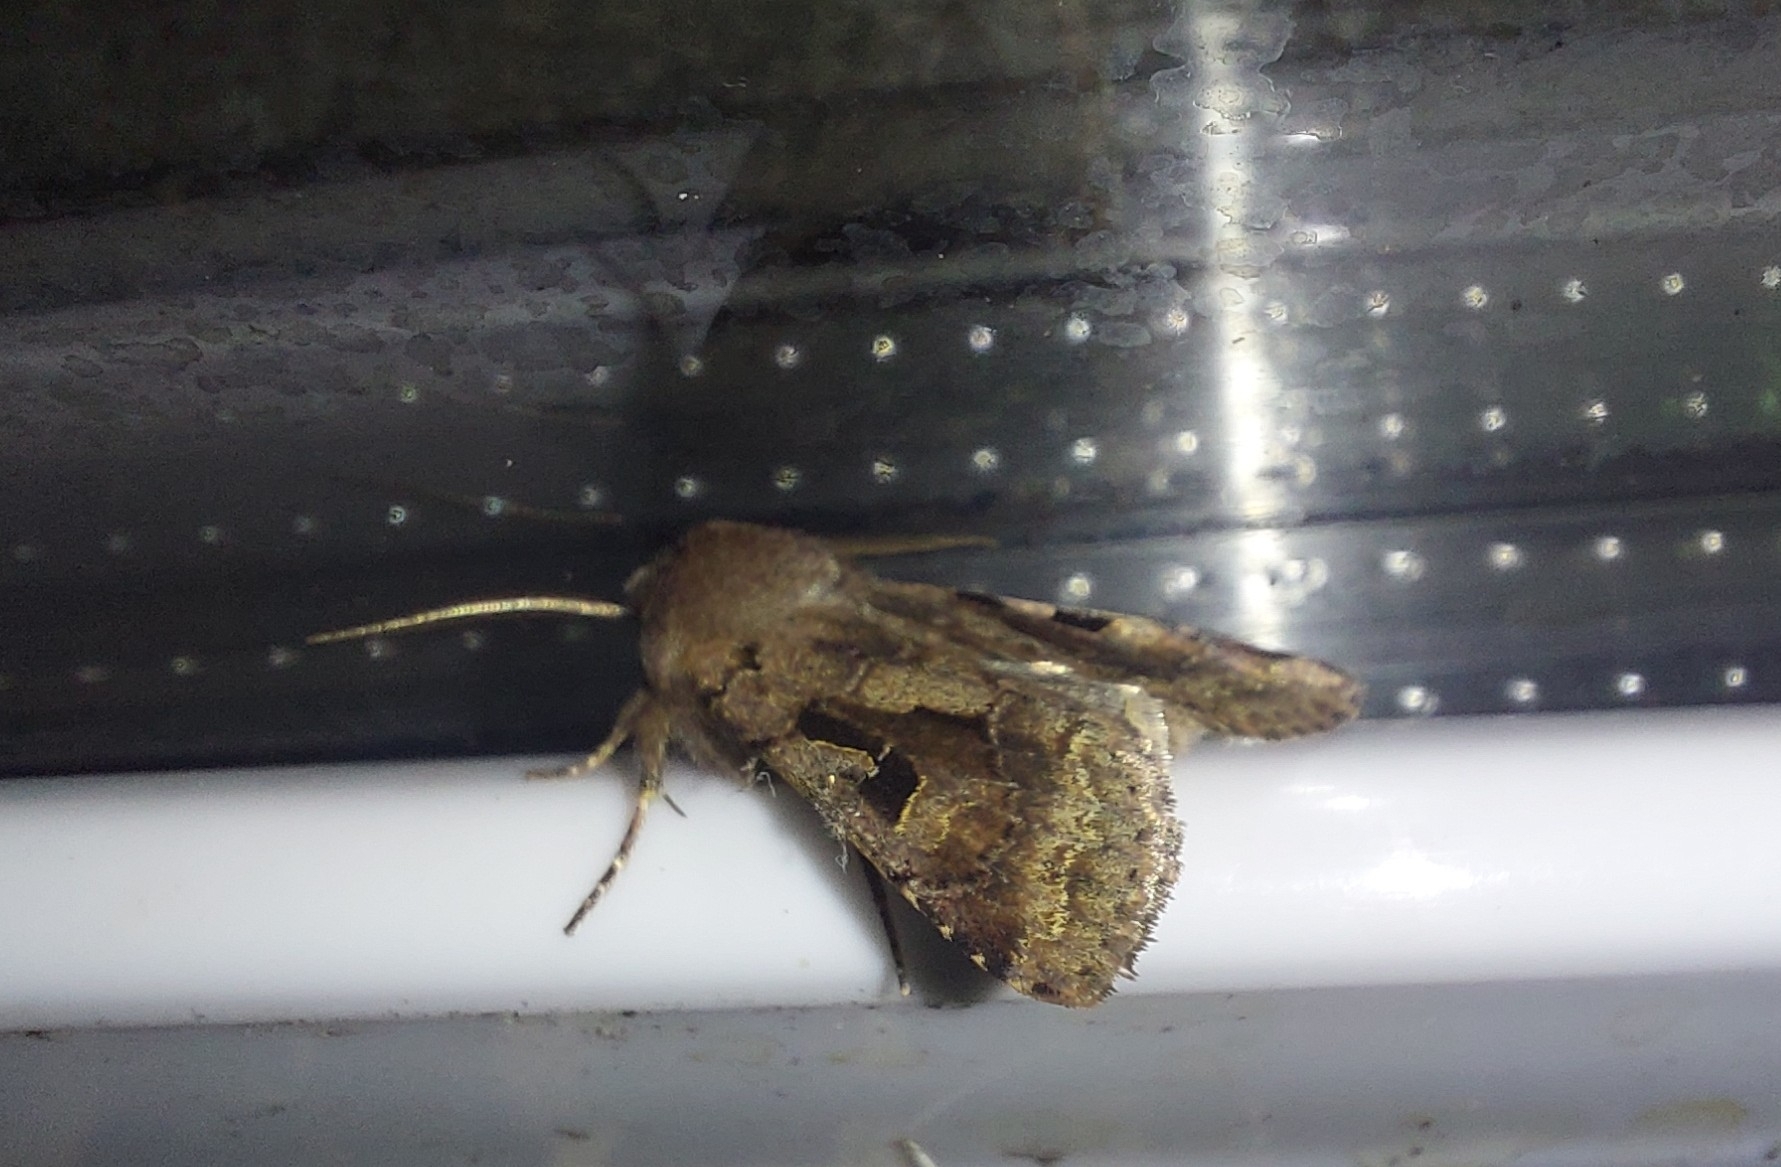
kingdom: Animalia
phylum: Arthropoda
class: Insecta
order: Lepidoptera
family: Noctuidae
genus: Orthosia
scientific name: Orthosia gothica
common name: Hebrew character
